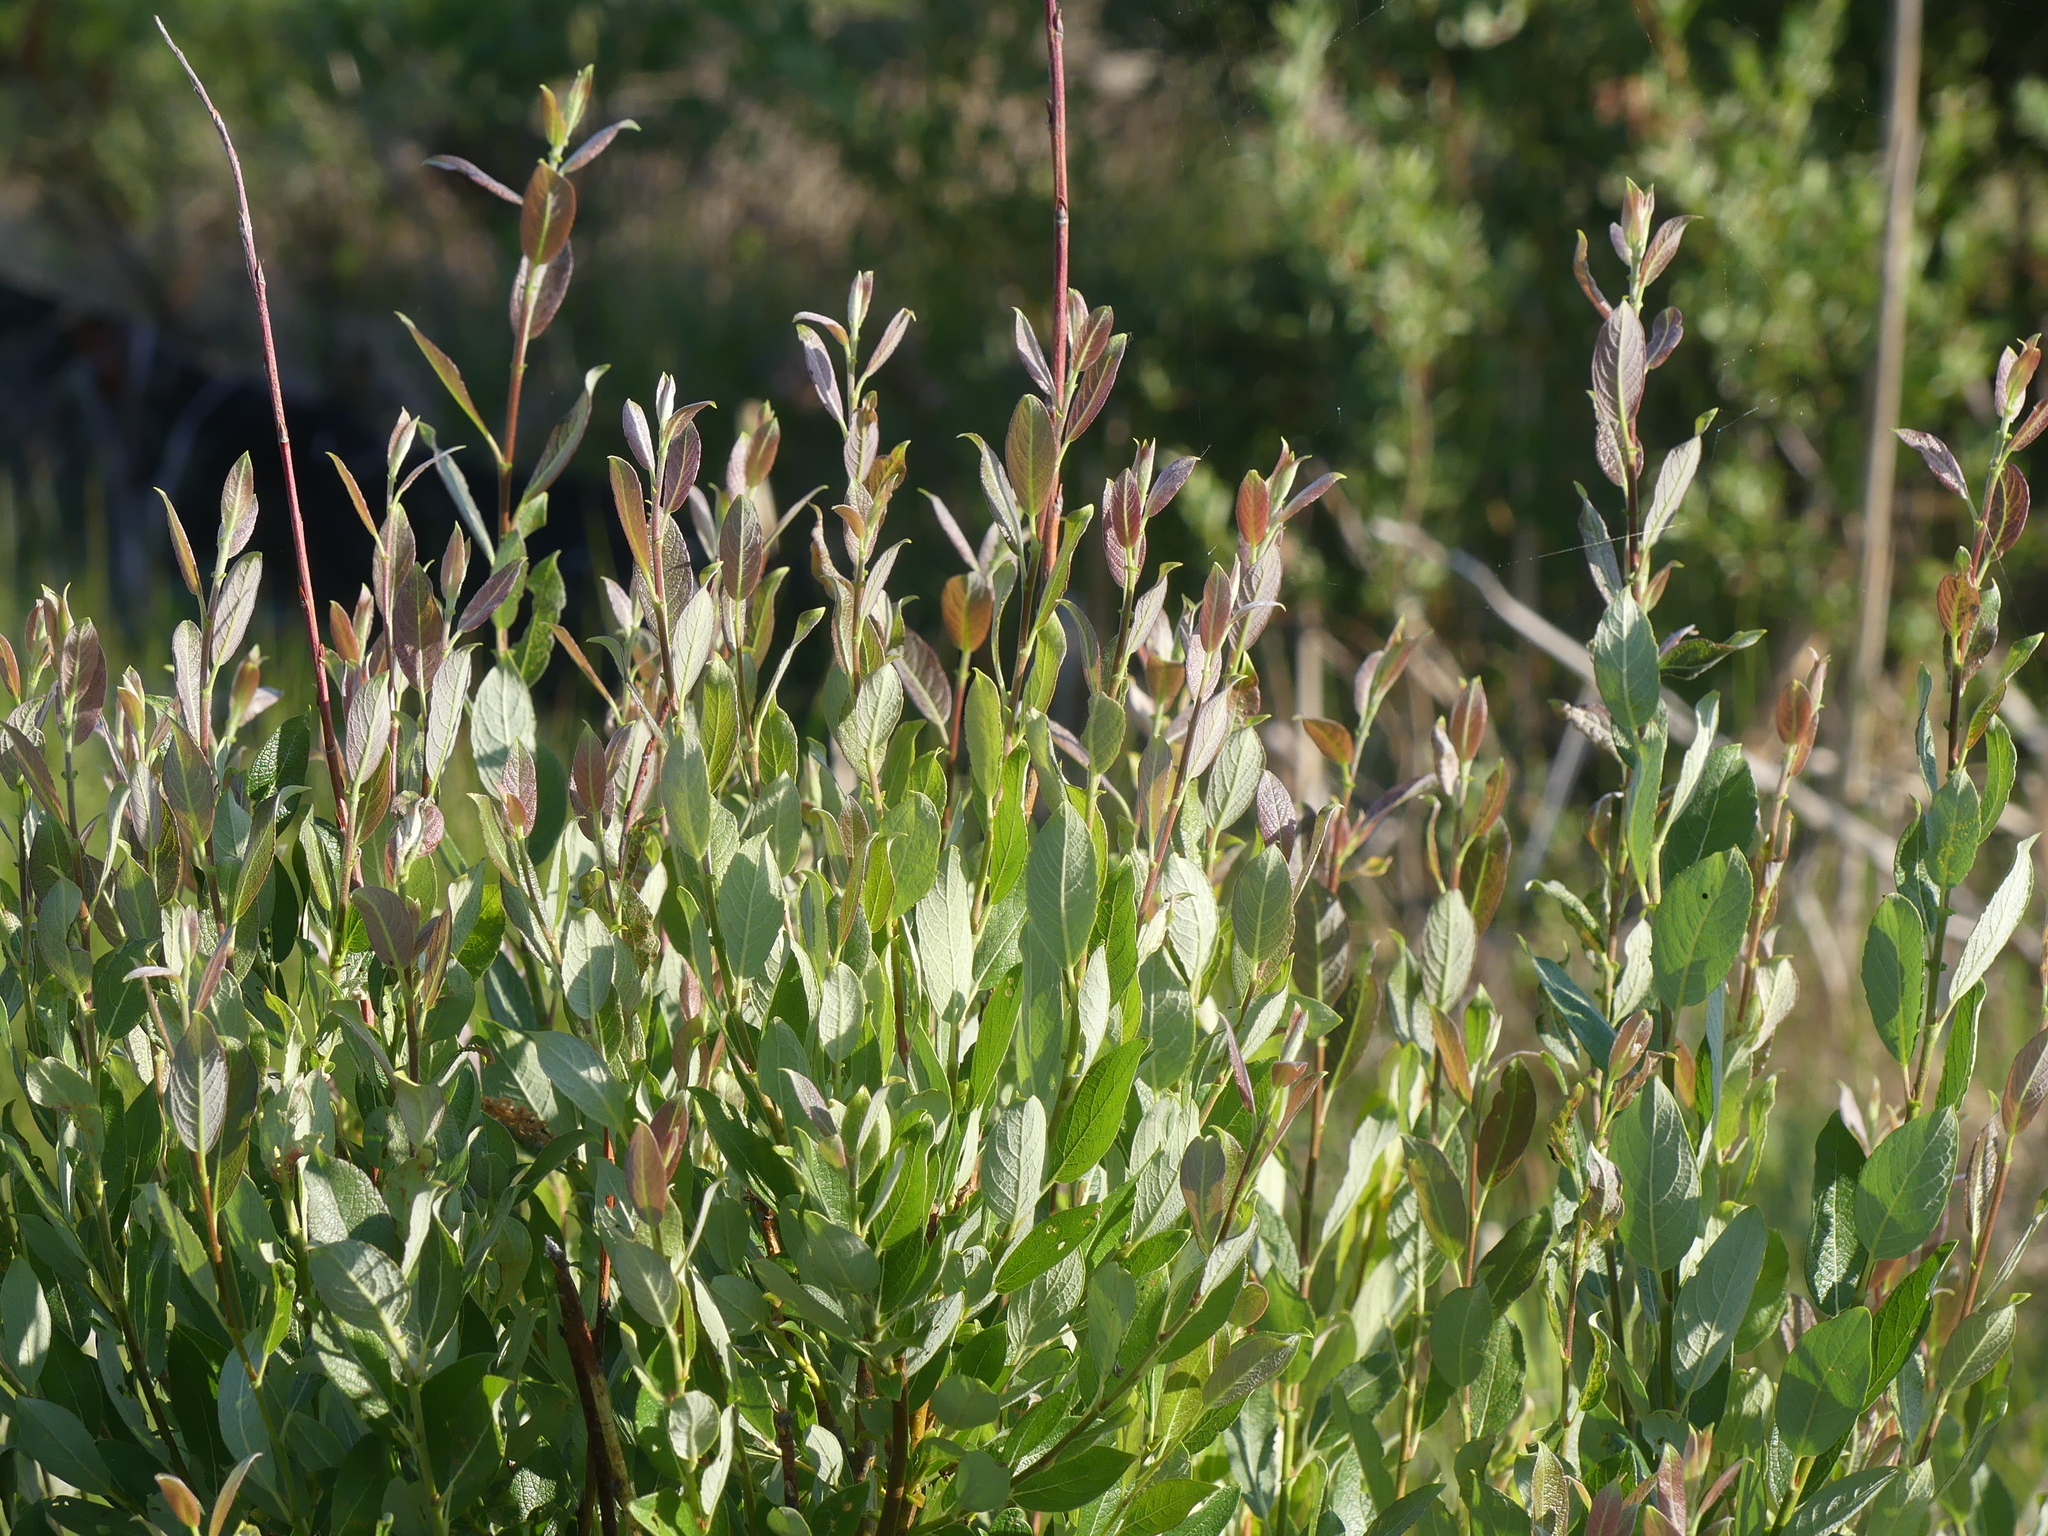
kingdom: Plantae
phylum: Tracheophyta
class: Magnoliopsida
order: Malpighiales
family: Salicaceae
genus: Salix
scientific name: Salix bebbiana
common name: Bebb's willow
